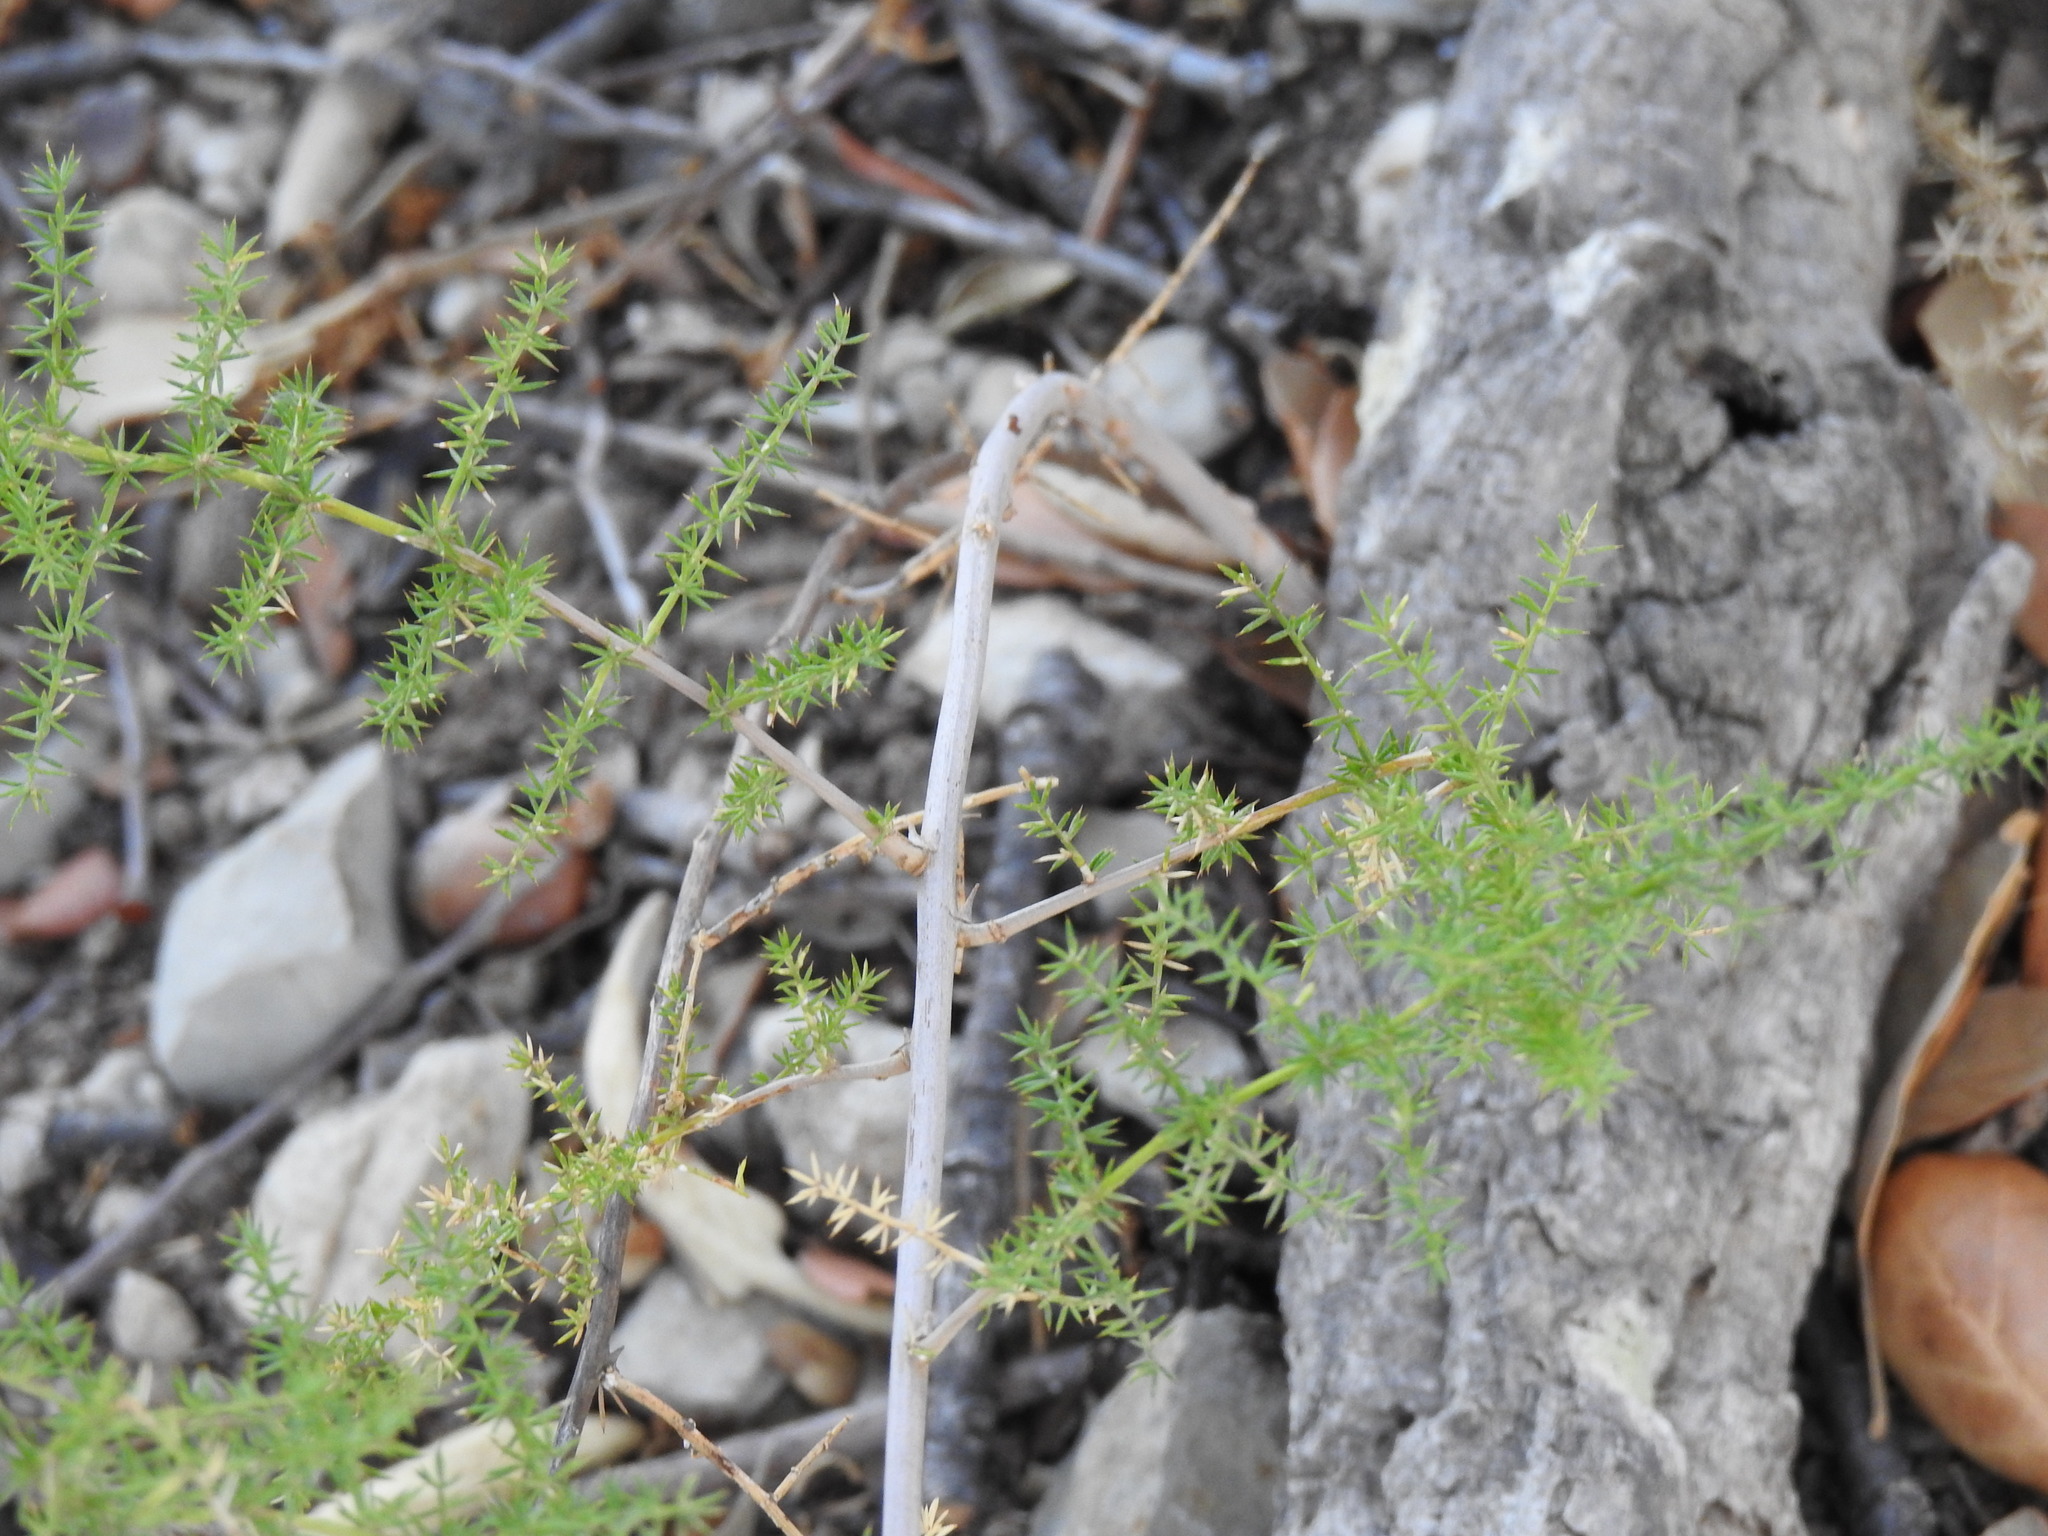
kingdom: Plantae
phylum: Tracheophyta
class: Liliopsida
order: Asparagales
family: Asparagaceae
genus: Asparagus
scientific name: Asparagus acutifolius
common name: Wild asparagus
